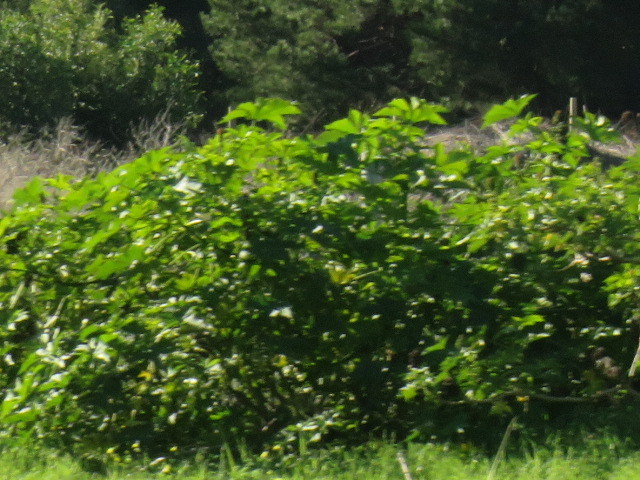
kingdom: Plantae
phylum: Tracheophyta
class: Magnoliopsida
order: Malpighiales
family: Euphorbiaceae
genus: Ricinus
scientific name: Ricinus communis
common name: Castor-oil-plant
